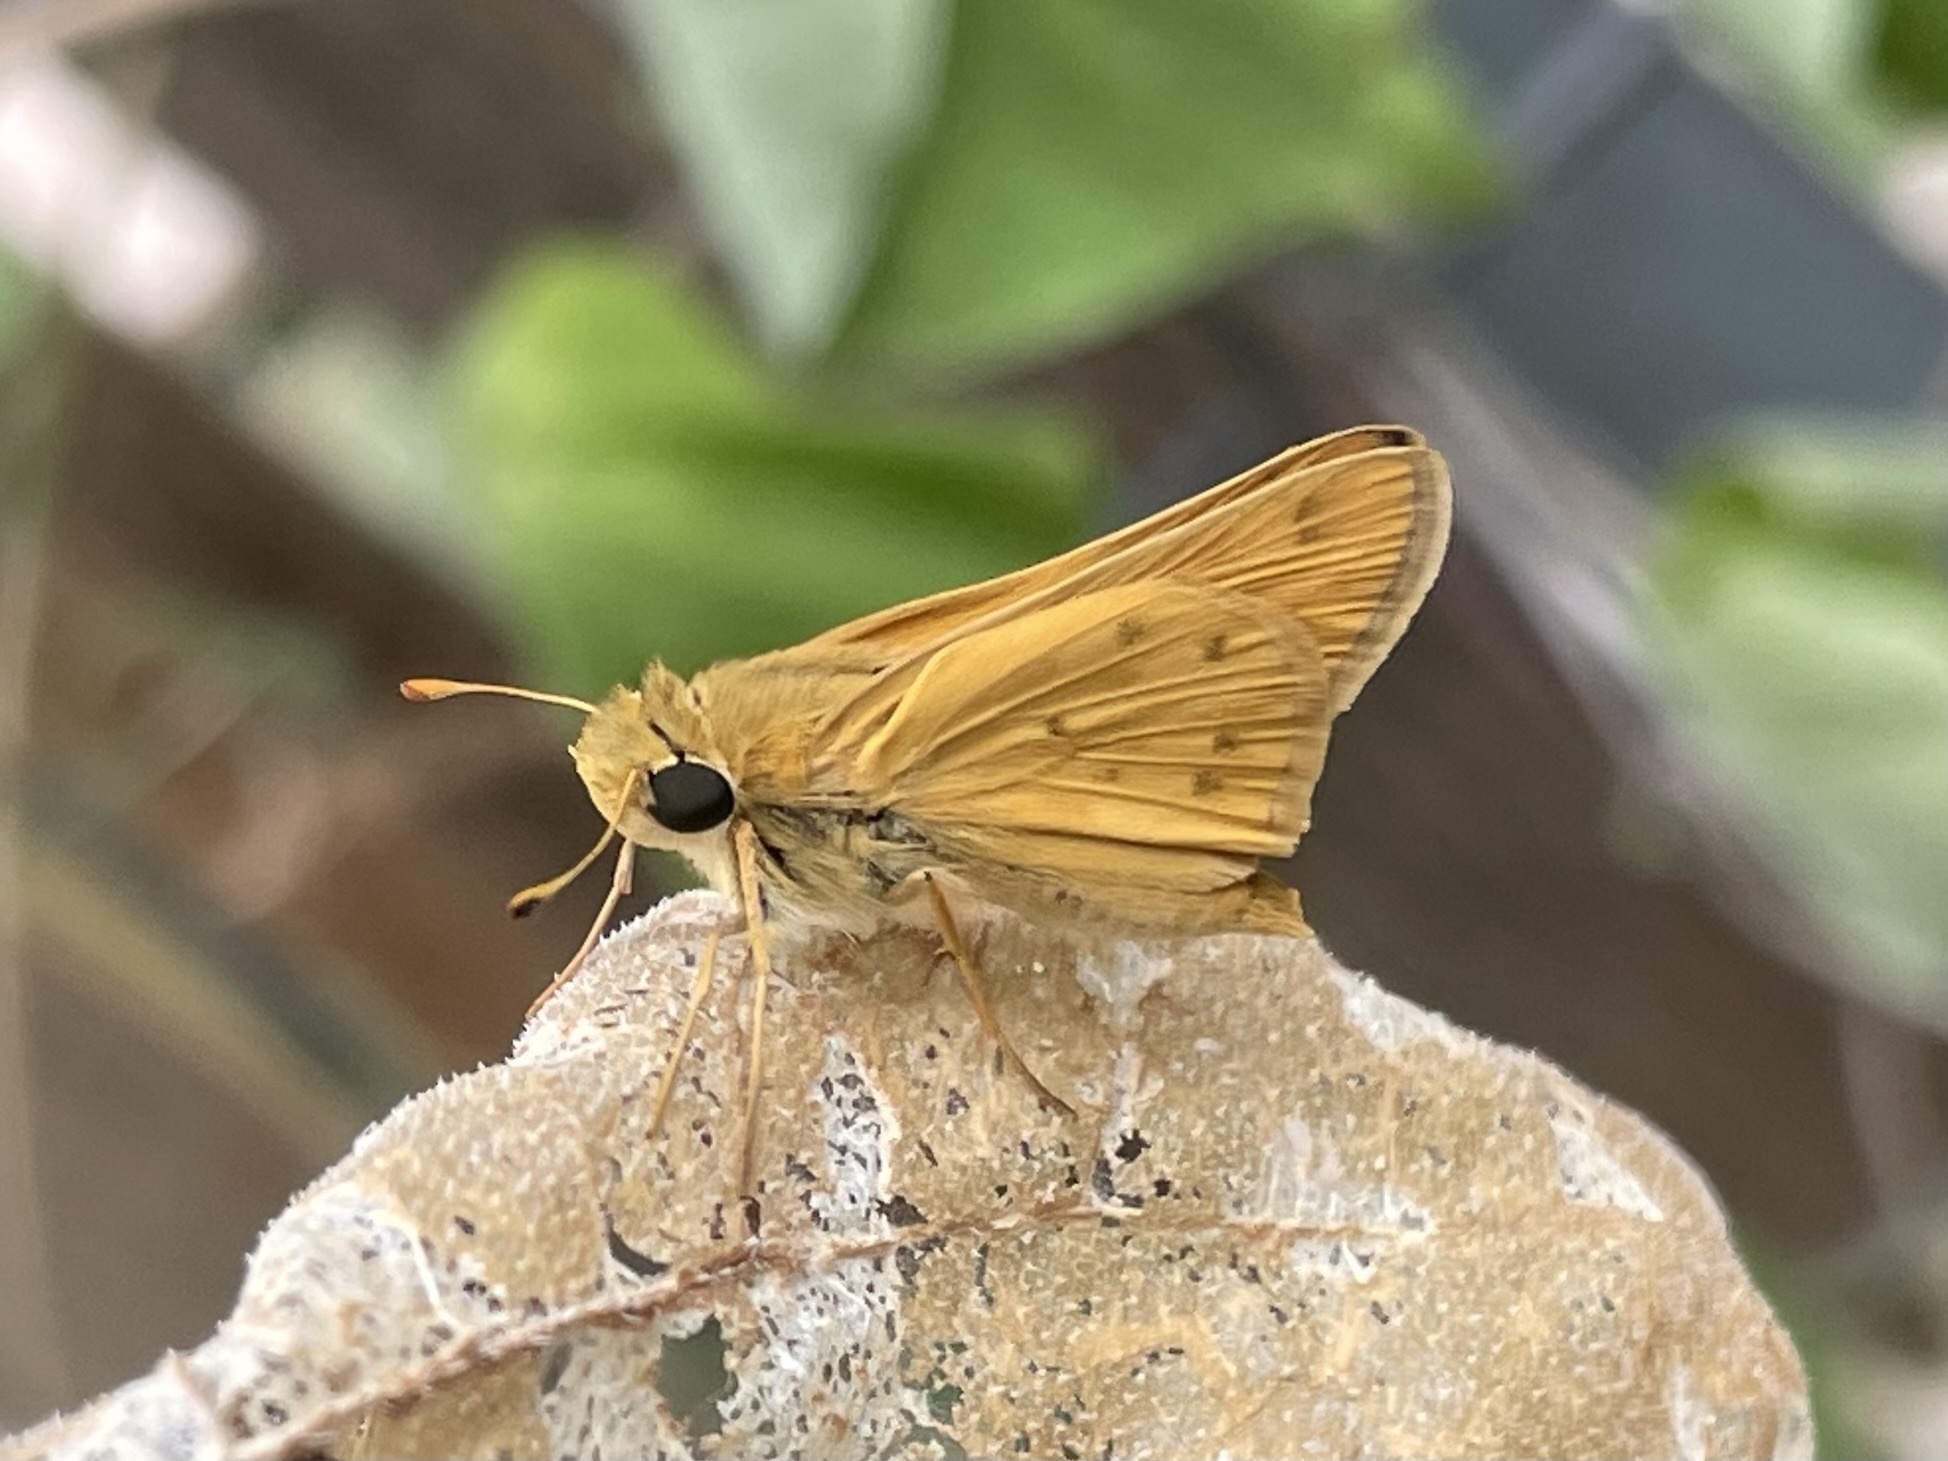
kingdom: Animalia
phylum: Arthropoda
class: Insecta
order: Lepidoptera
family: Hesperiidae
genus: Hylephila
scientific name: Hylephila phyleus
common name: Fiery skipper
